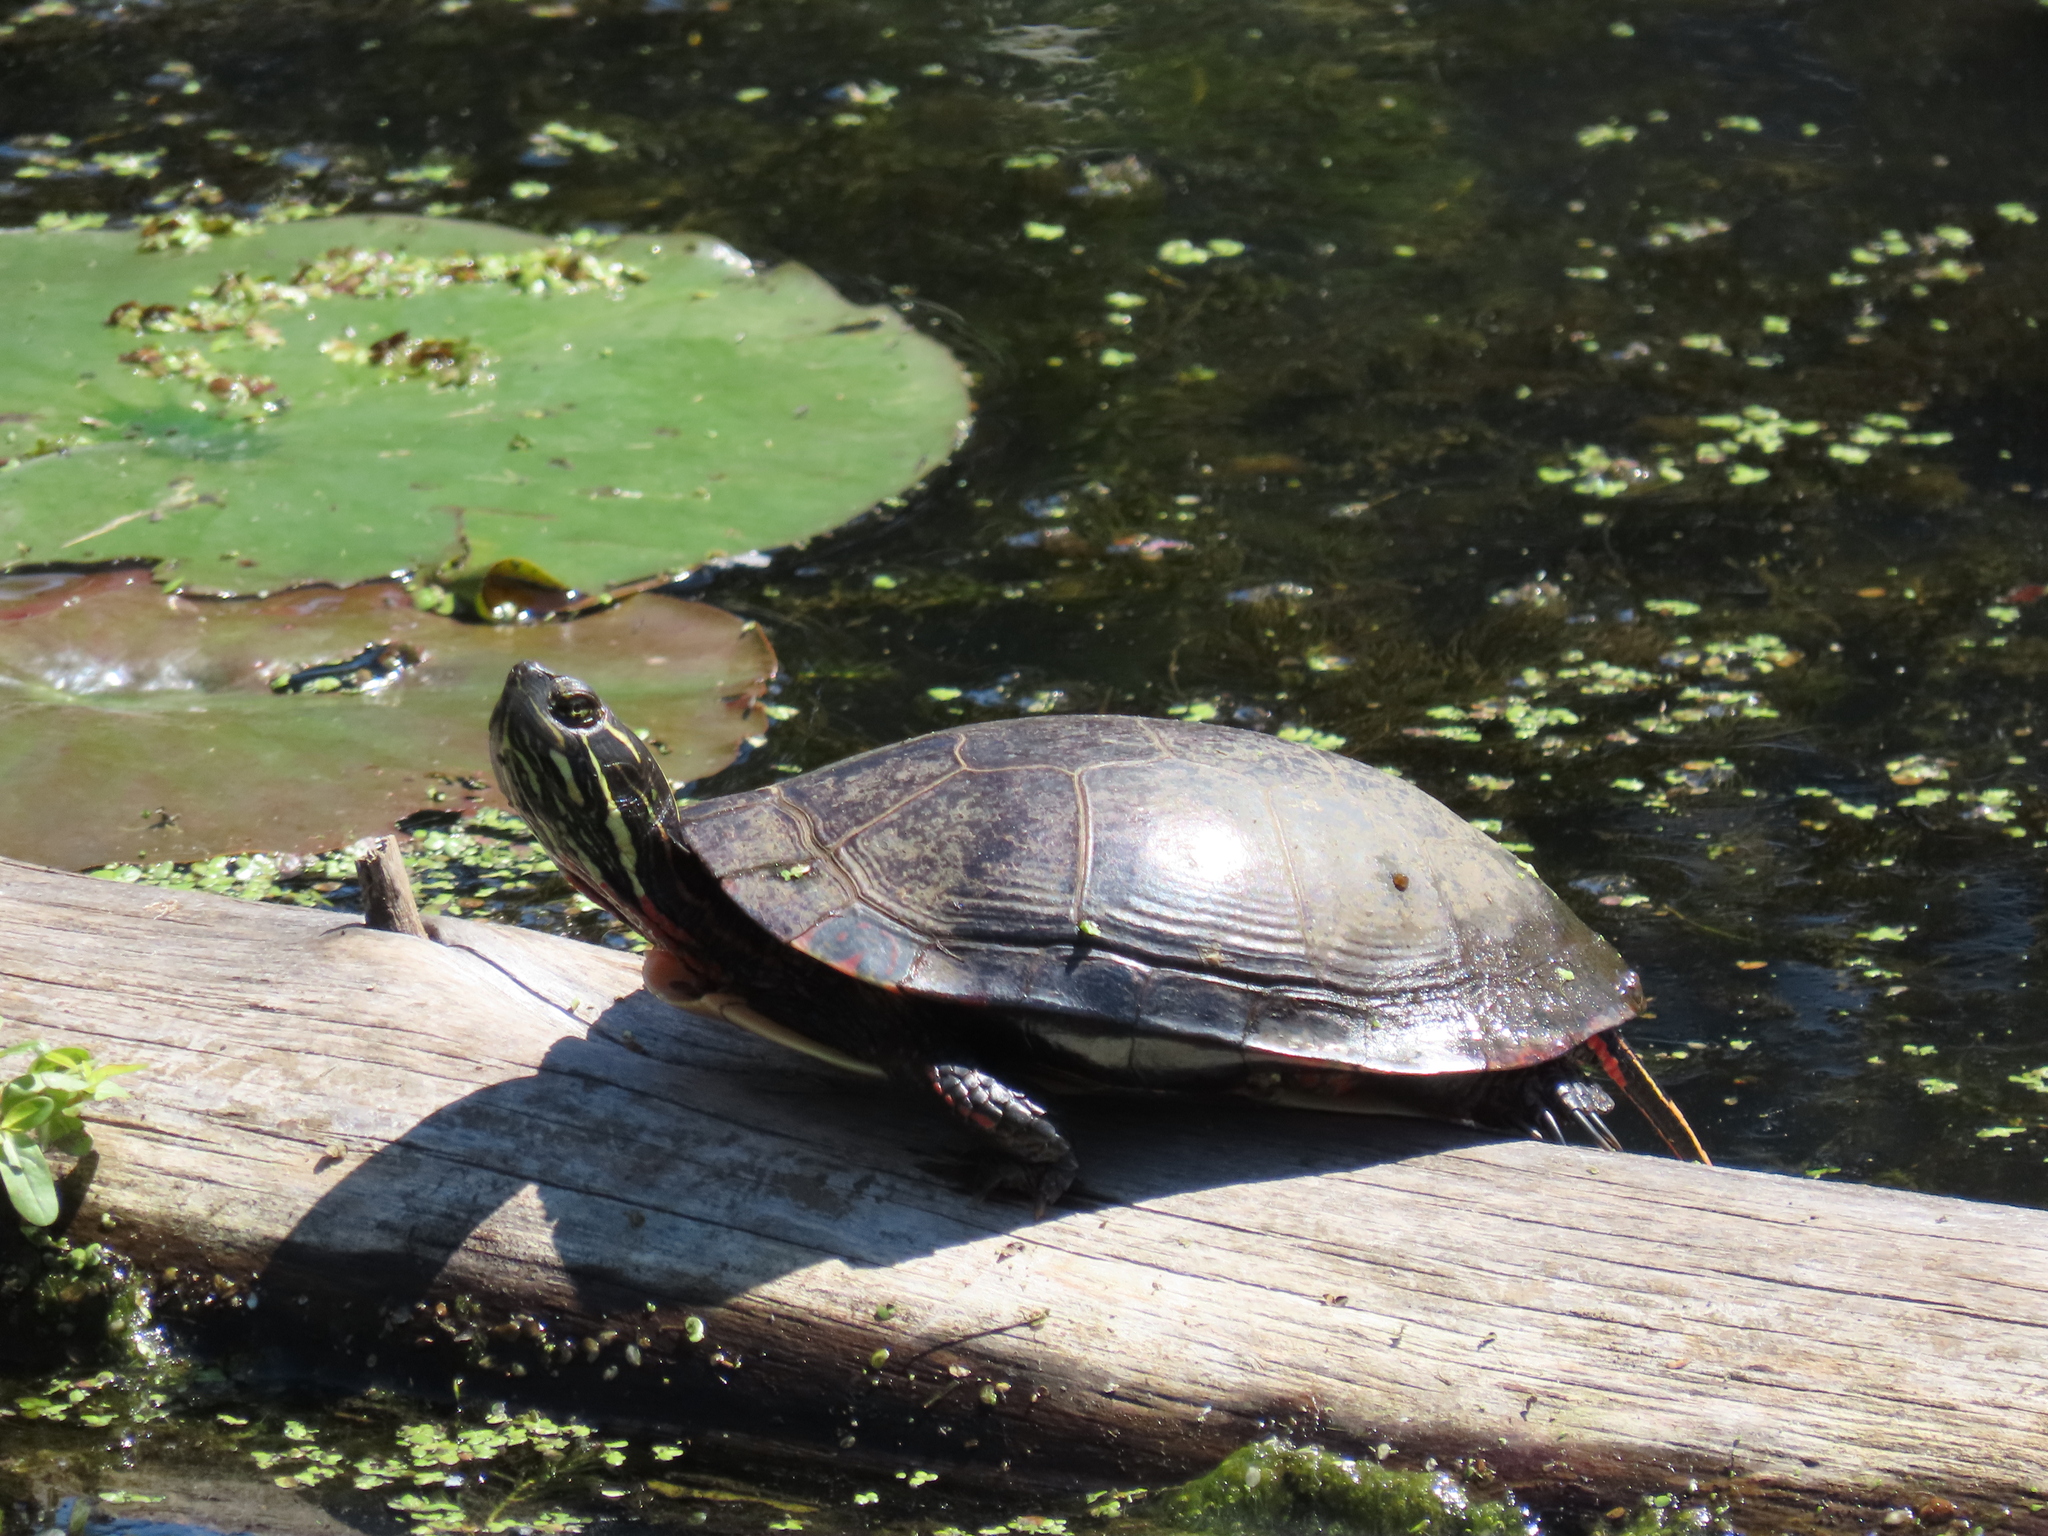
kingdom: Animalia
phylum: Chordata
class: Testudines
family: Emydidae
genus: Chrysemys
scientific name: Chrysemys picta
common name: Painted turtle
